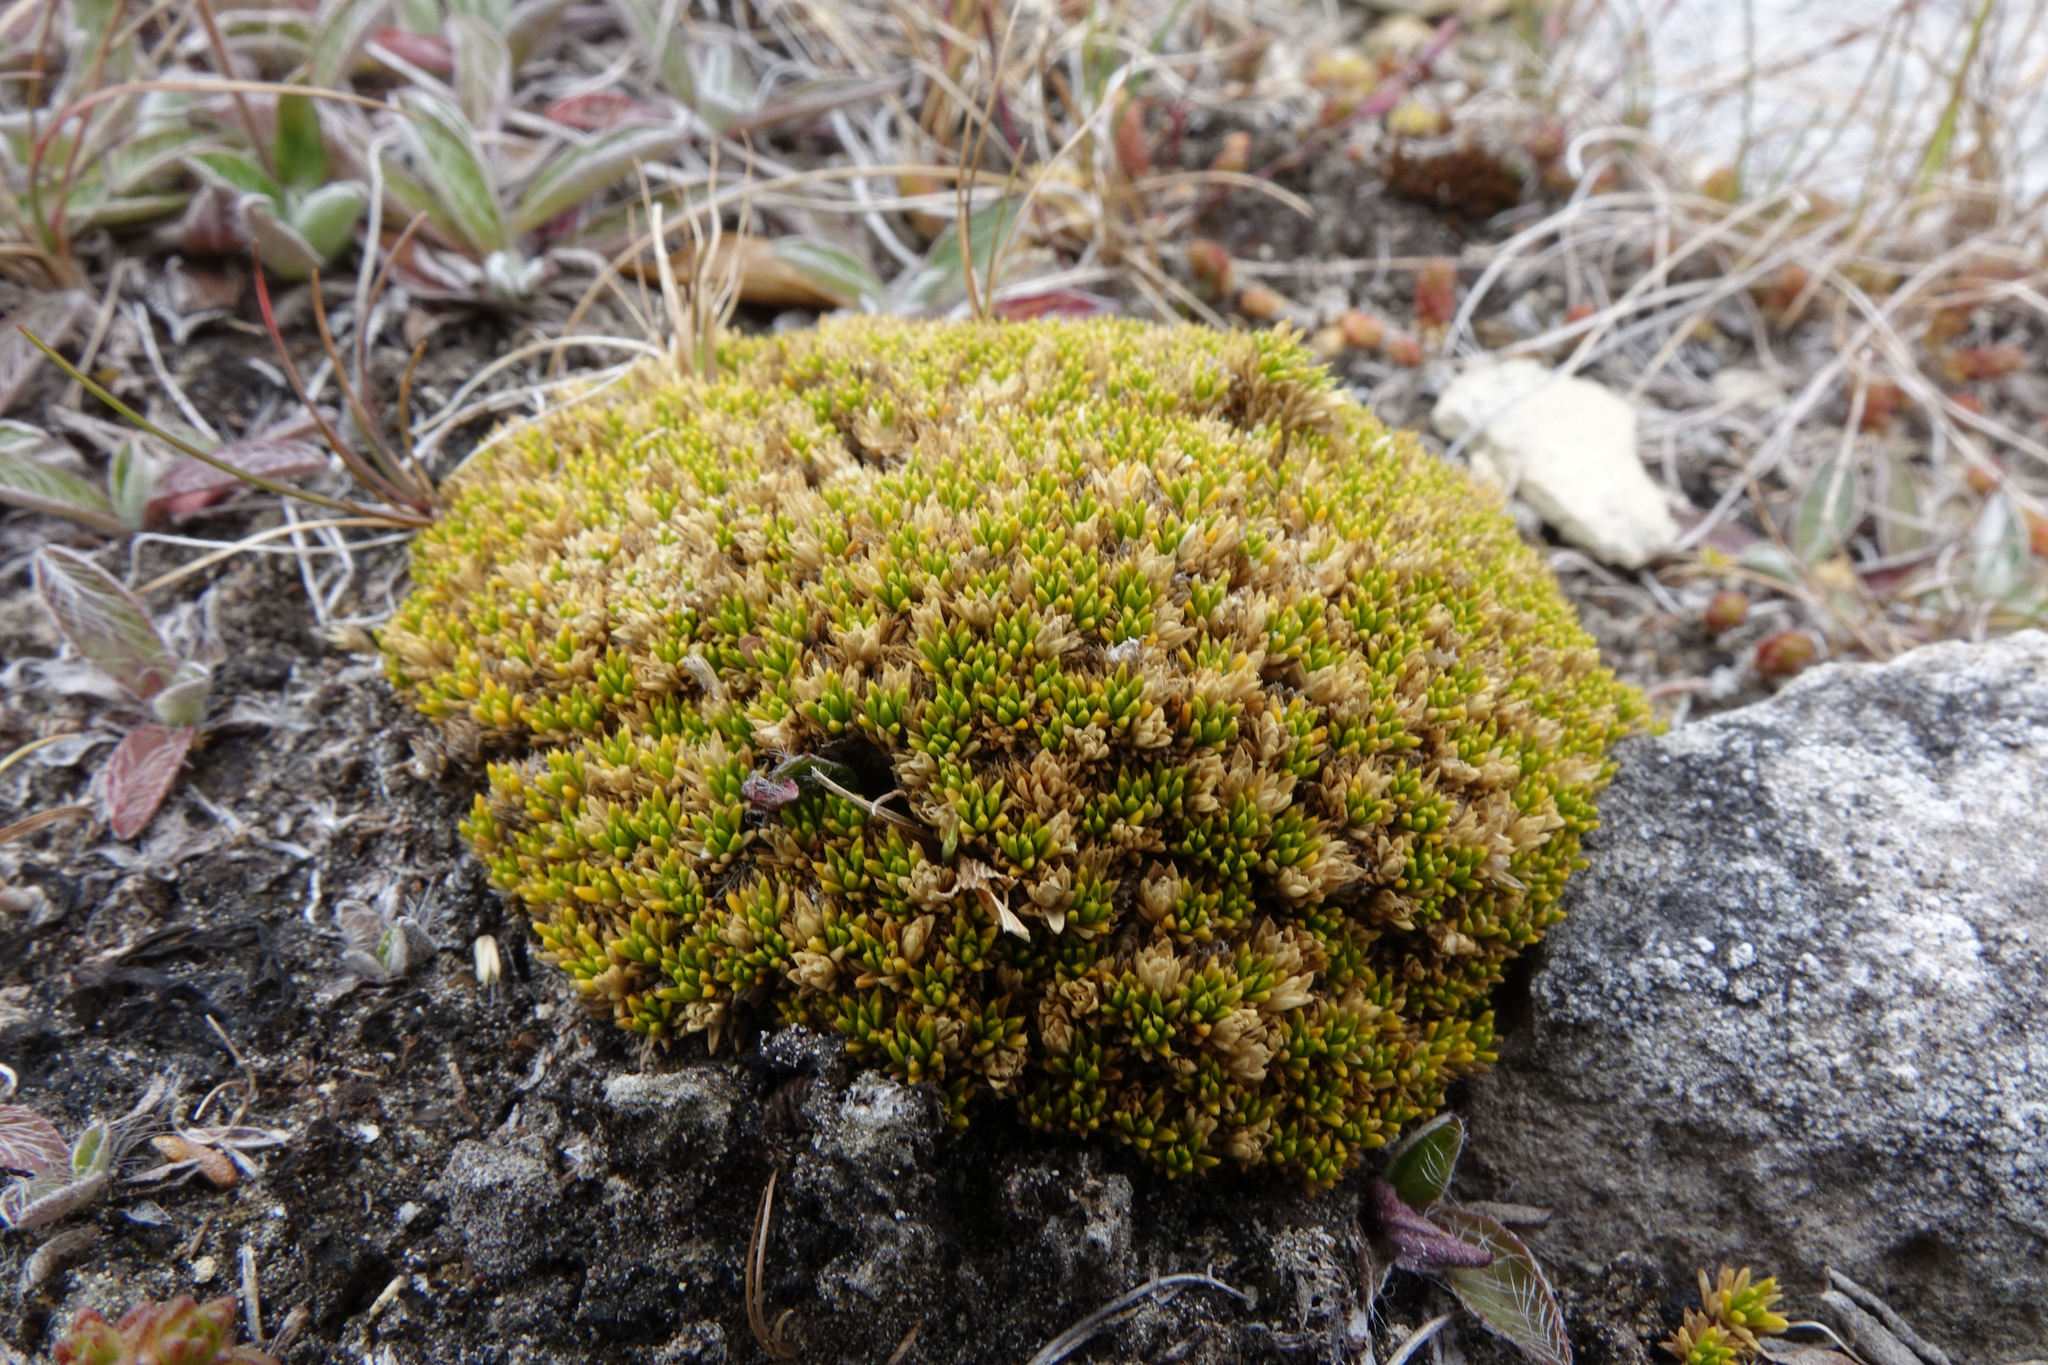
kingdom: Plantae
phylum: Tracheophyta
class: Magnoliopsida
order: Caryophyllales
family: Caryophyllaceae
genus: Colobanthus
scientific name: Colobanthus brevisepalus
